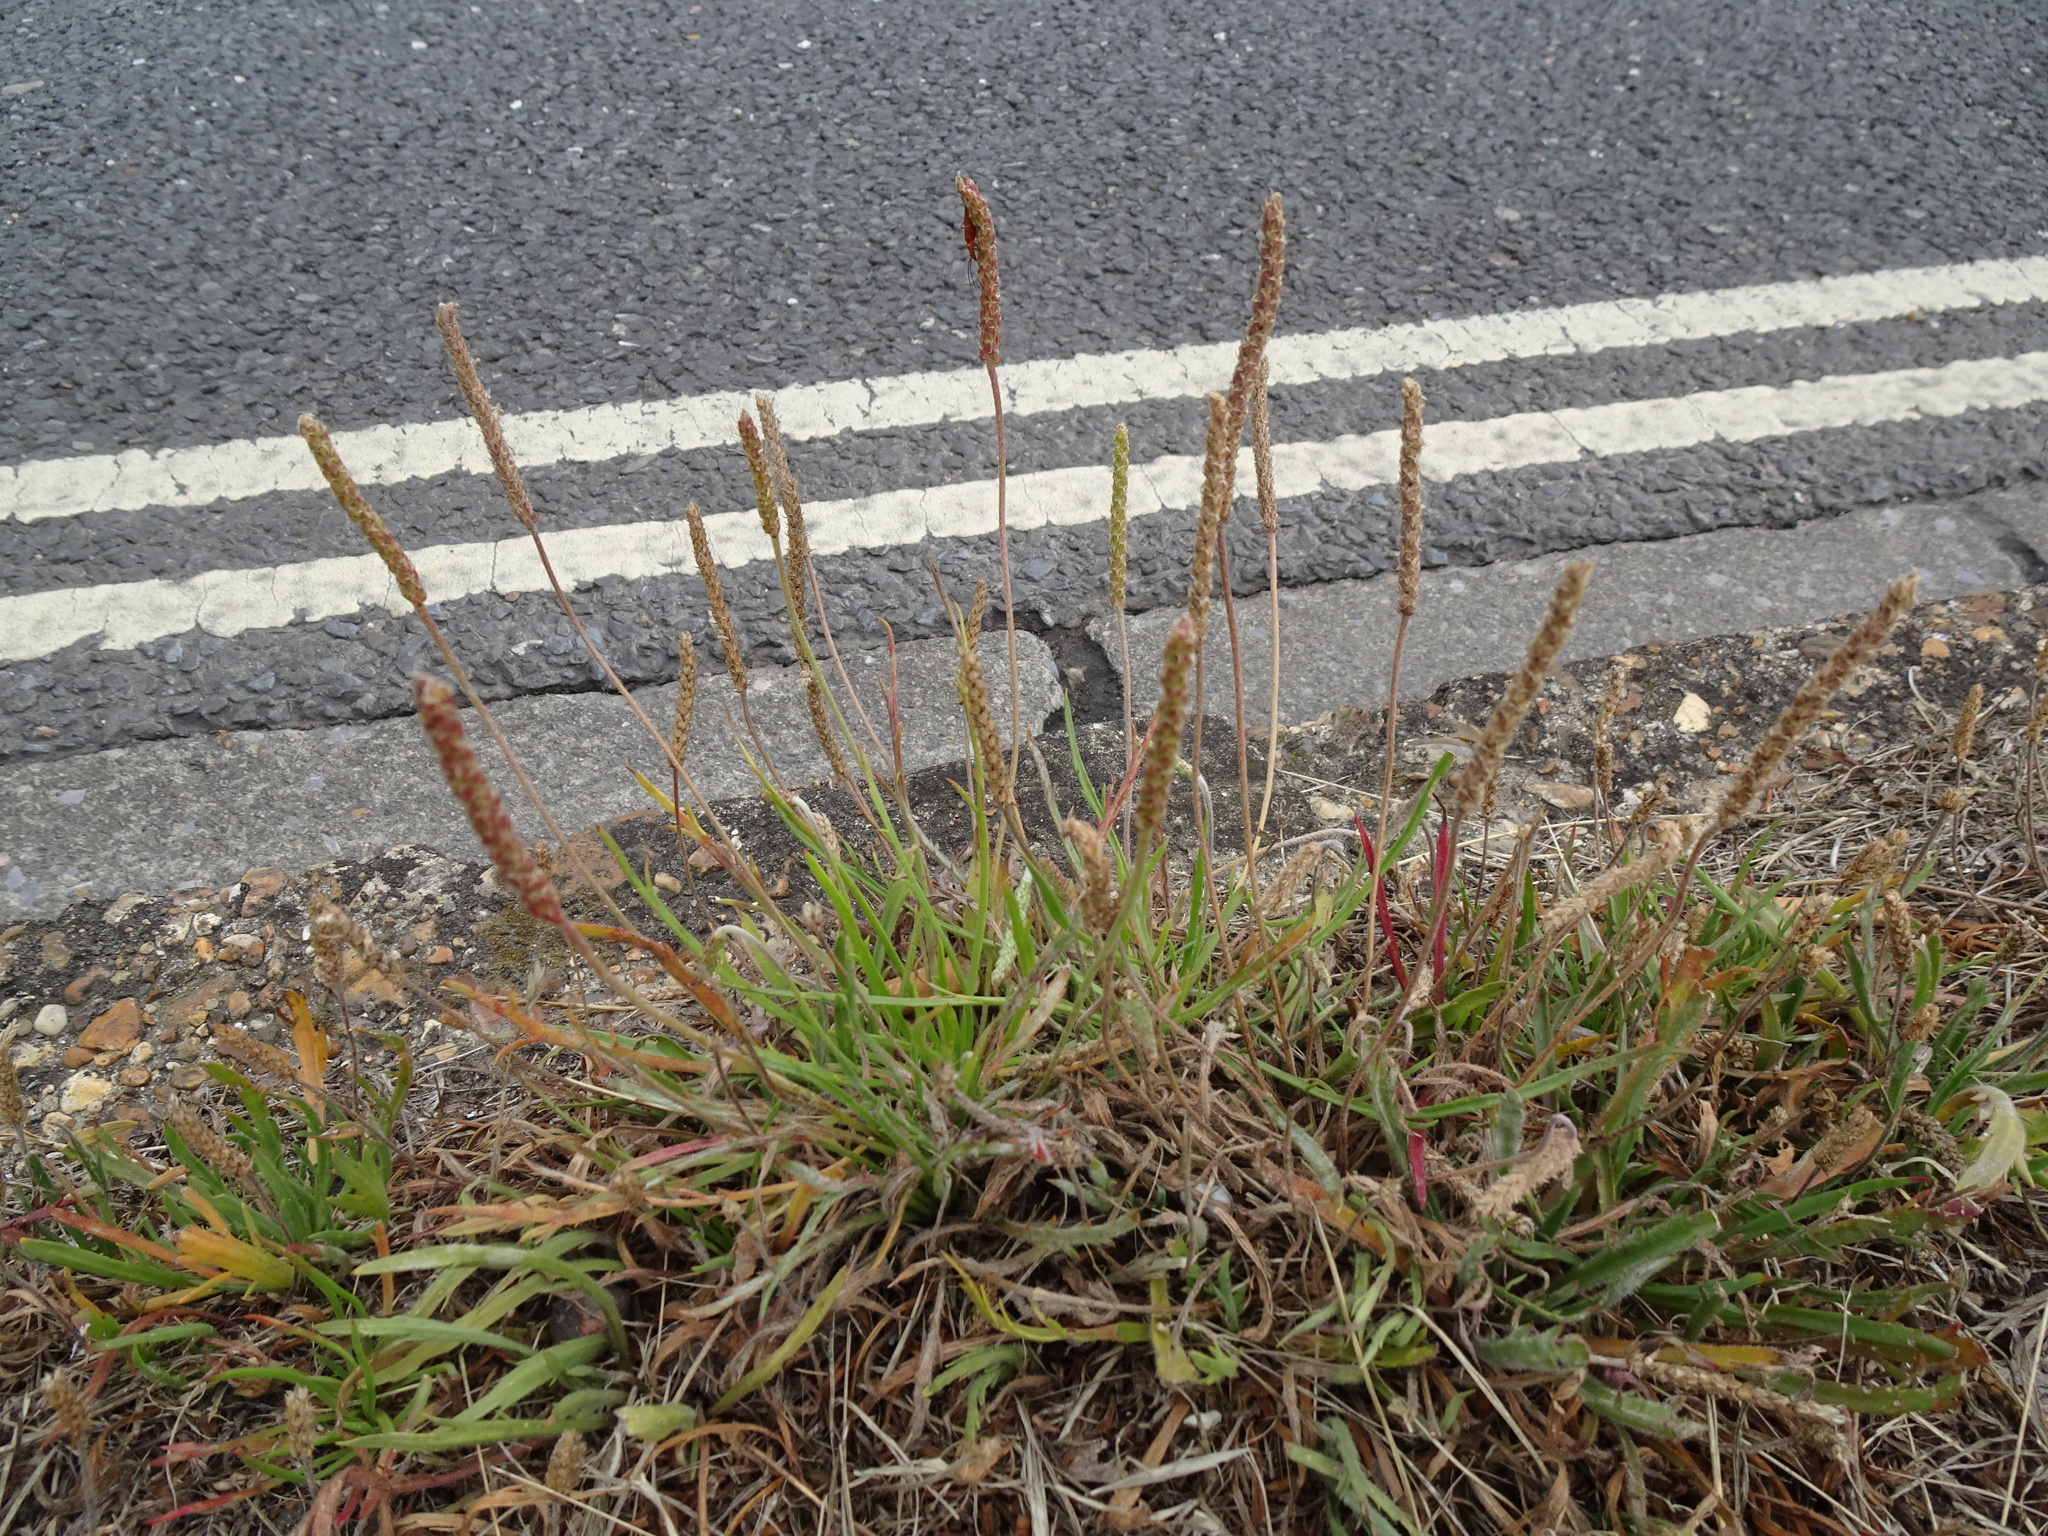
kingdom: Plantae
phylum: Tracheophyta
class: Magnoliopsida
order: Lamiales
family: Plantaginaceae
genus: Plantago
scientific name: Plantago coronopus
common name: Buck's-horn plantain
